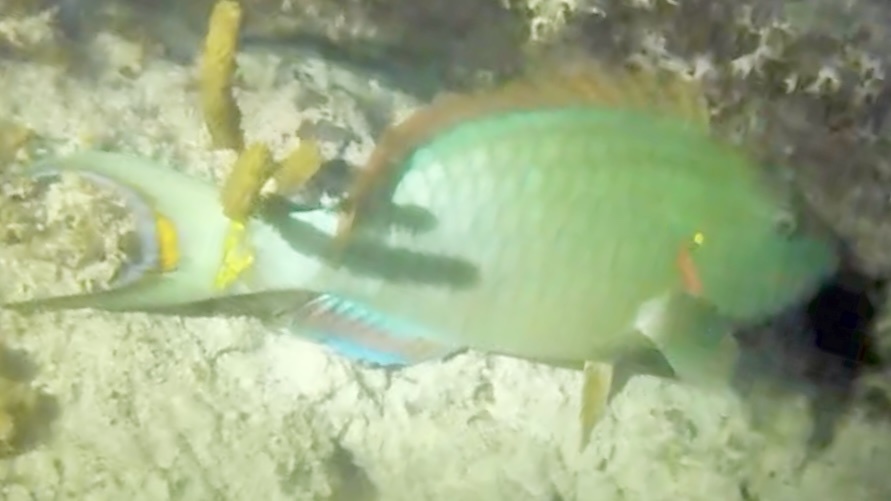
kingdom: Animalia
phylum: Chordata
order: Perciformes
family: Scaridae
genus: Sparisoma
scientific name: Sparisoma viride
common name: Stoplight parrotfish
